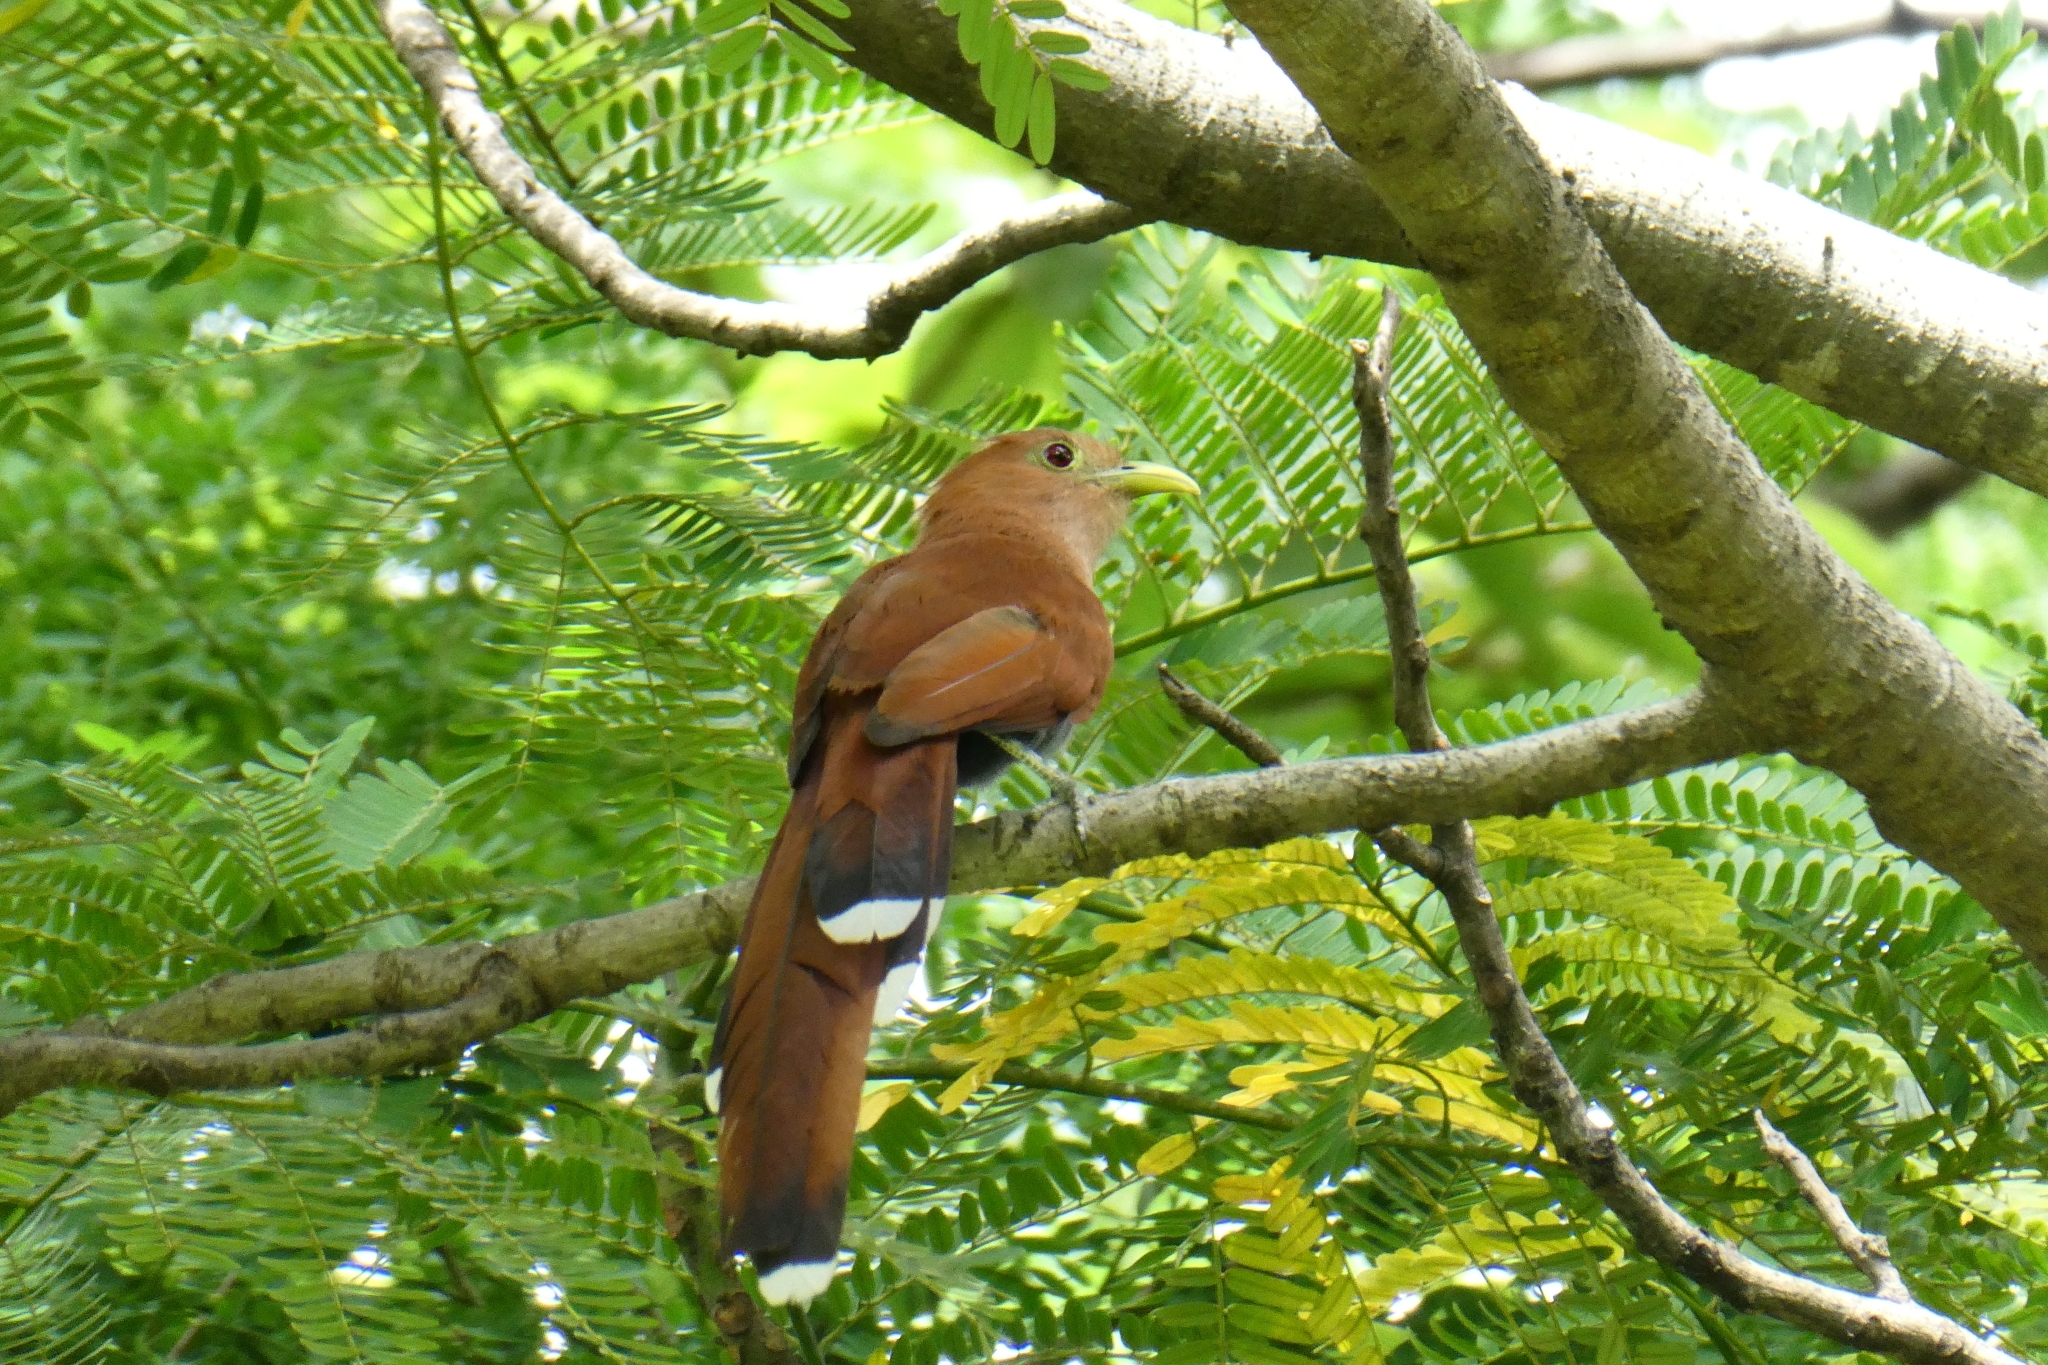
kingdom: Animalia
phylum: Chordata
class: Aves
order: Cuculiformes
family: Cuculidae
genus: Piaya
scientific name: Piaya cayana
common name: Squirrel cuckoo
